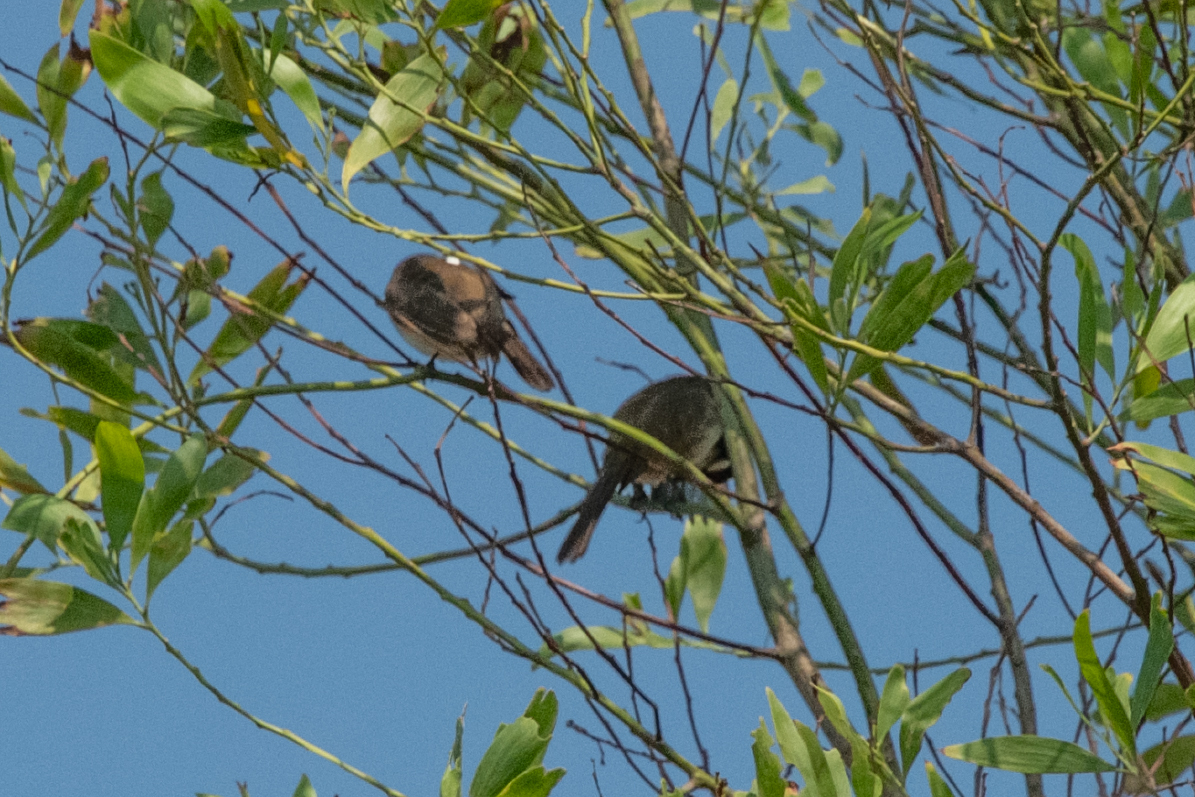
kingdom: Animalia
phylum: Chordata
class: Aves
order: Passeriformes
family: Pycnonotidae
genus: Pycnonotus
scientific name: Pycnonotus jocosus
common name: Red-whiskered bulbul
